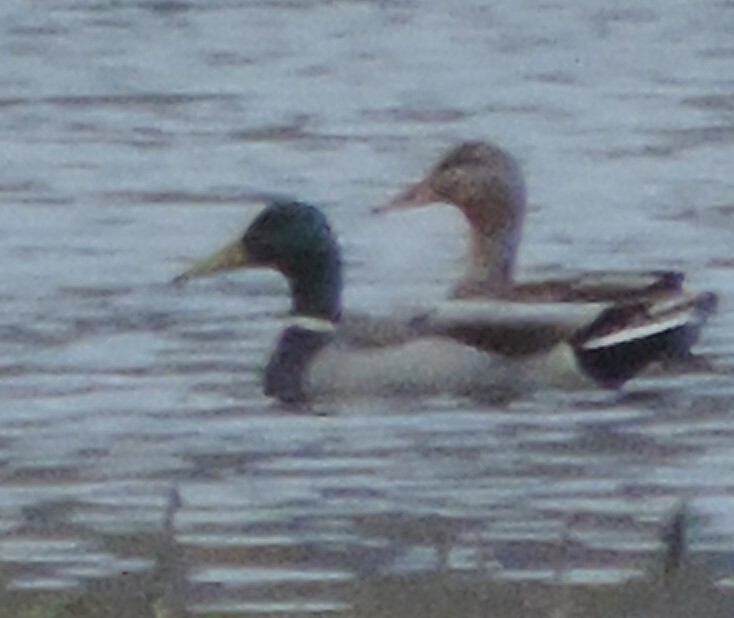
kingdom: Animalia
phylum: Chordata
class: Aves
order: Anseriformes
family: Anatidae
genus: Anas
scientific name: Anas platyrhynchos
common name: Mallard
